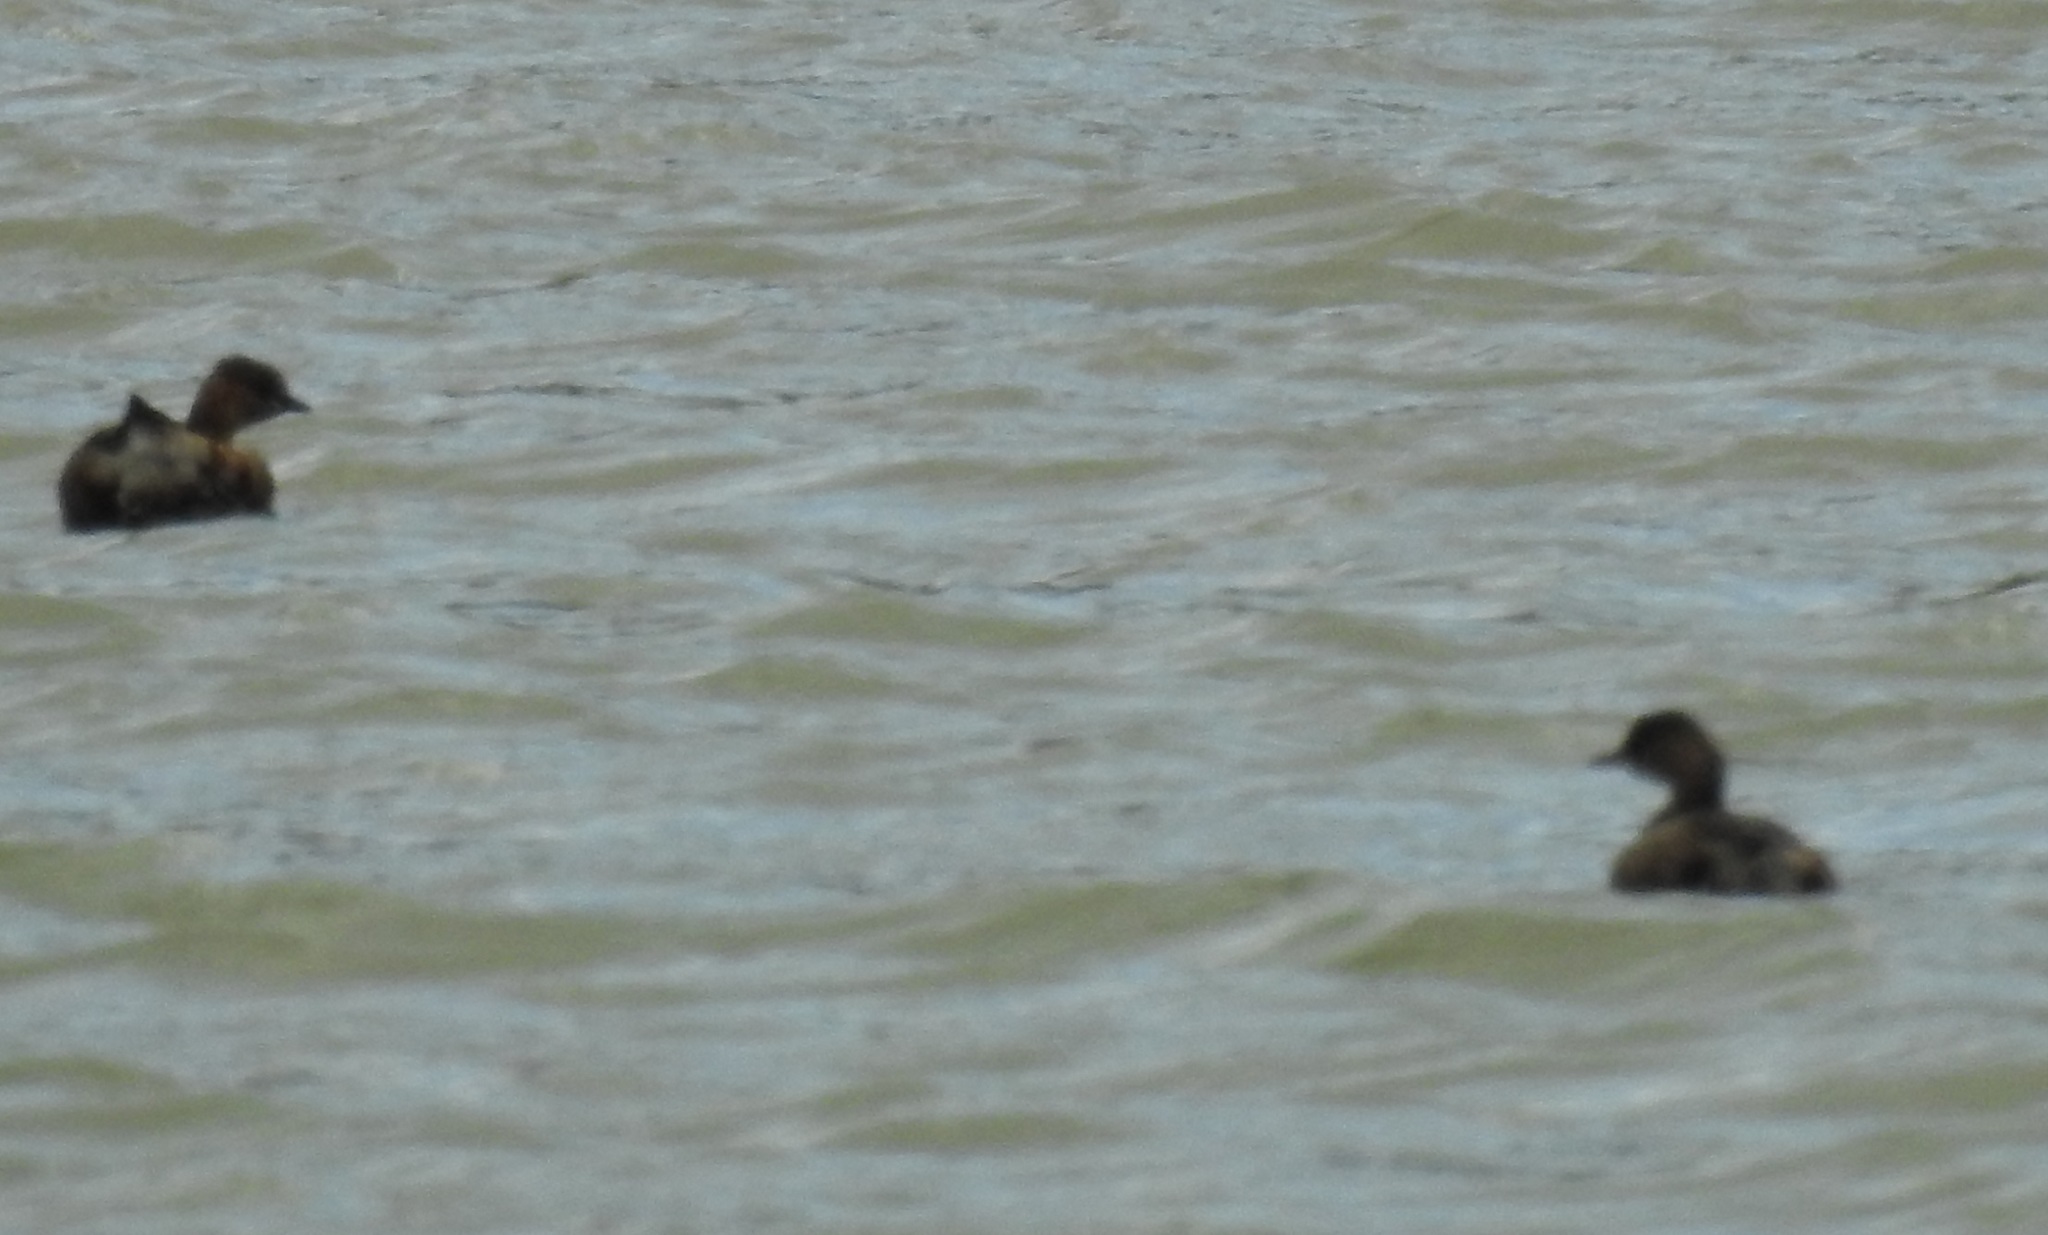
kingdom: Animalia
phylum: Chordata
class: Aves
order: Podicipediformes
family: Podicipedidae
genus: Tachybaptus
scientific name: Tachybaptus ruficollis
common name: Little grebe
